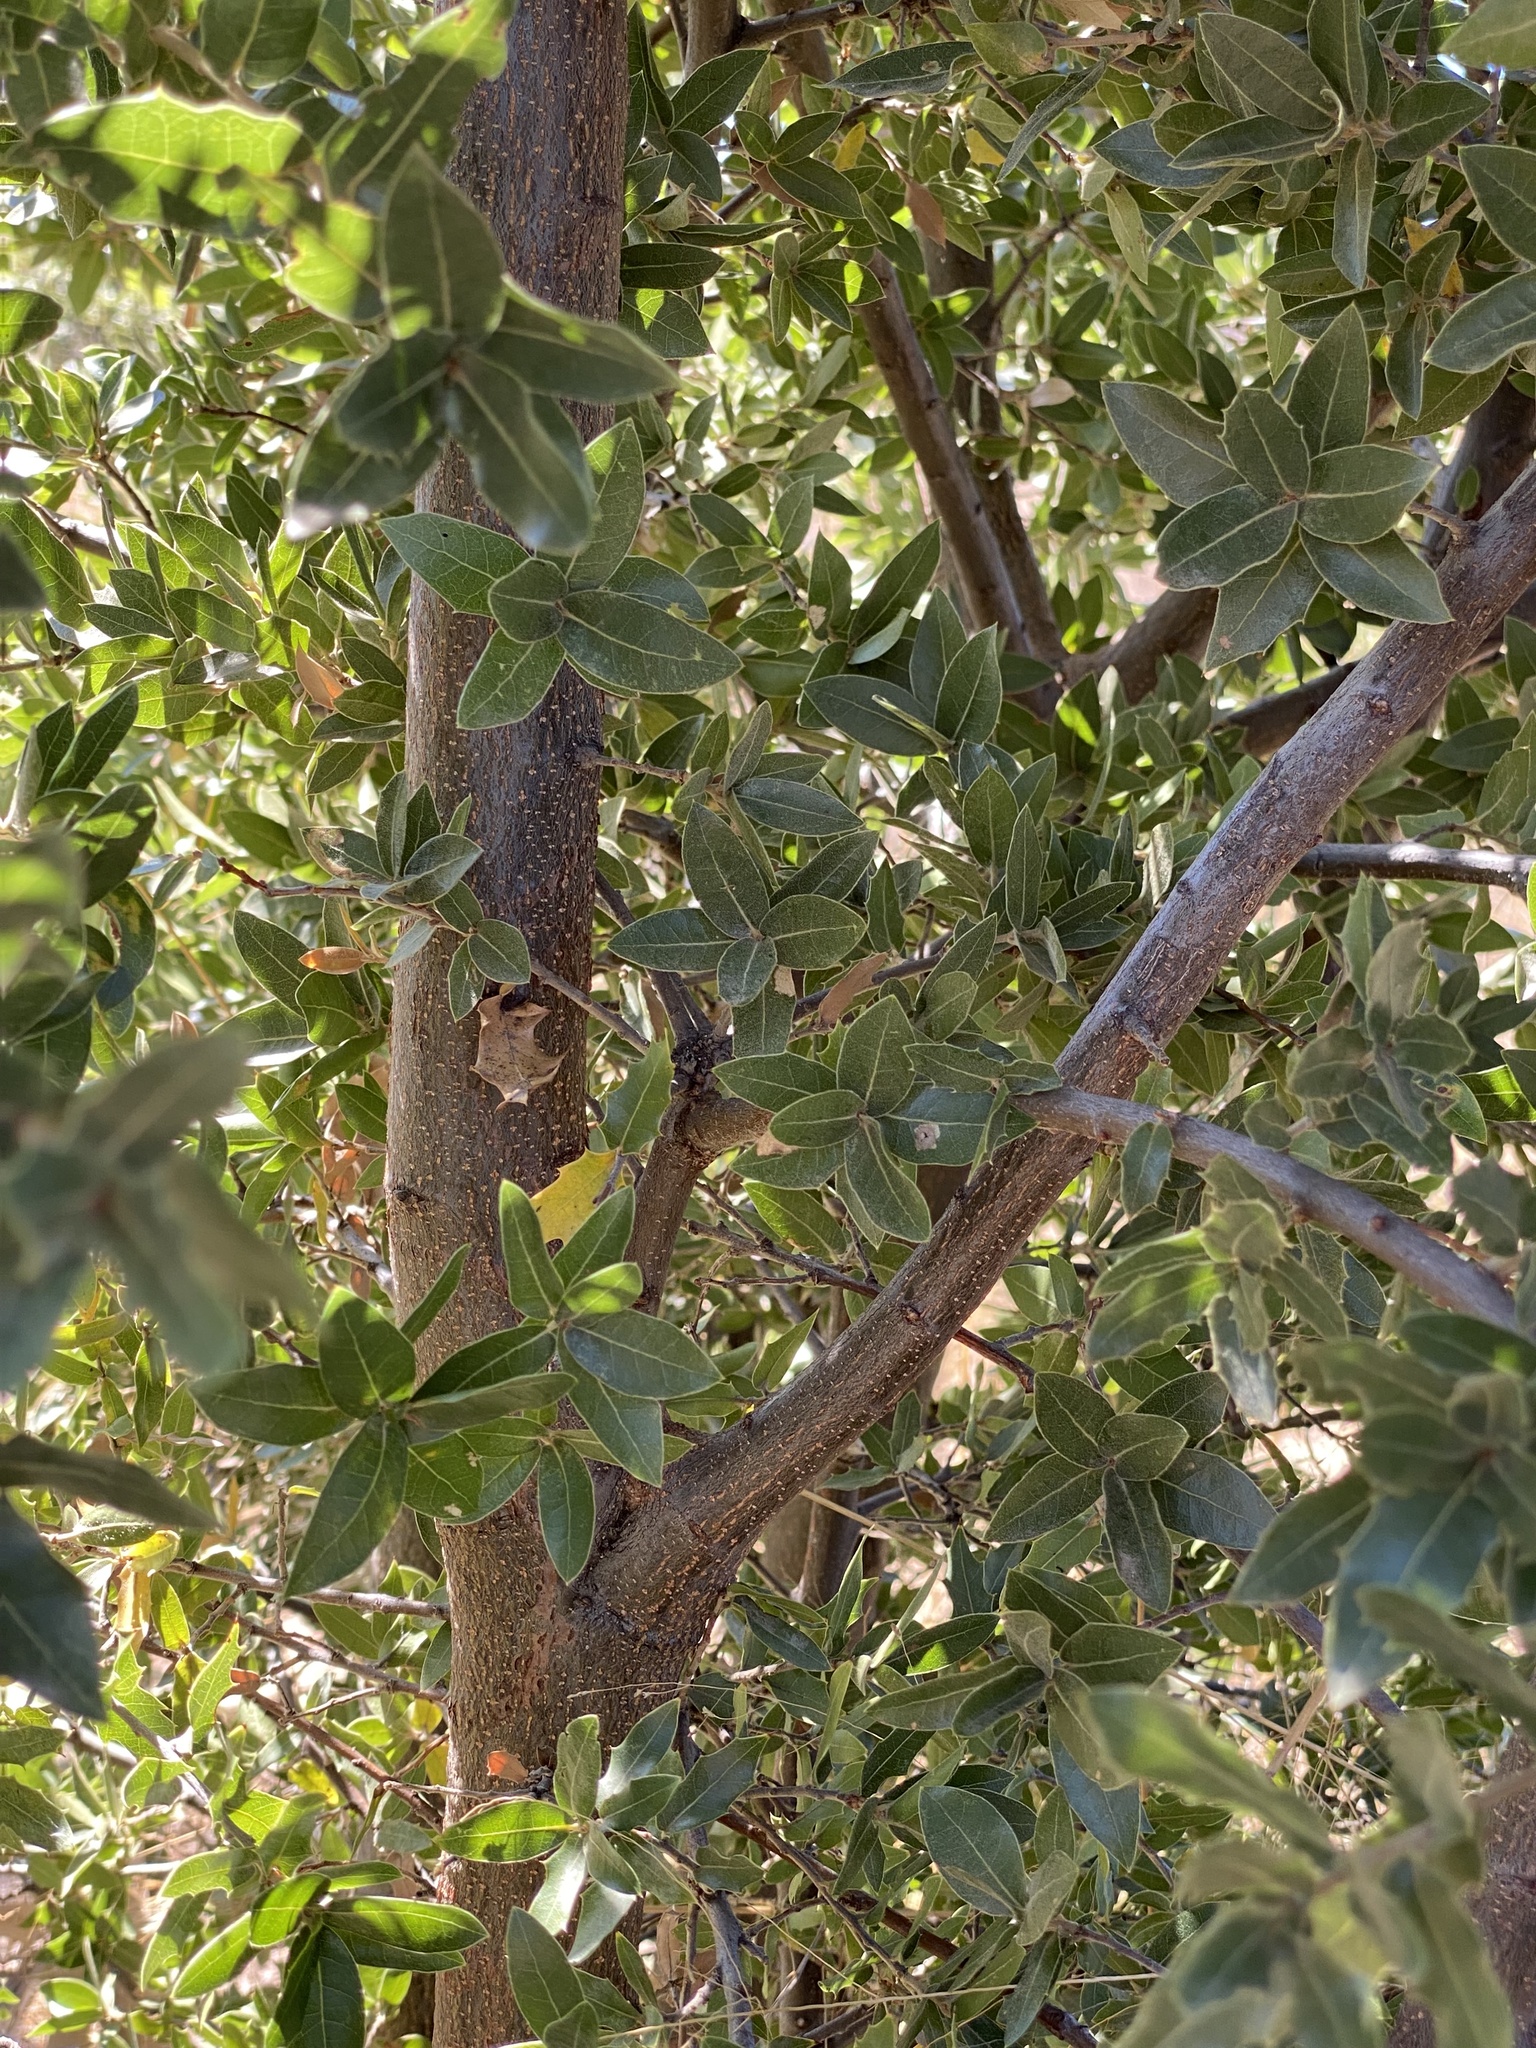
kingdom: Plantae
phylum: Tracheophyta
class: Magnoliopsida
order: Fagales
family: Fagaceae
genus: Quercus
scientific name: Quercus emoryi
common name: Emory oak
